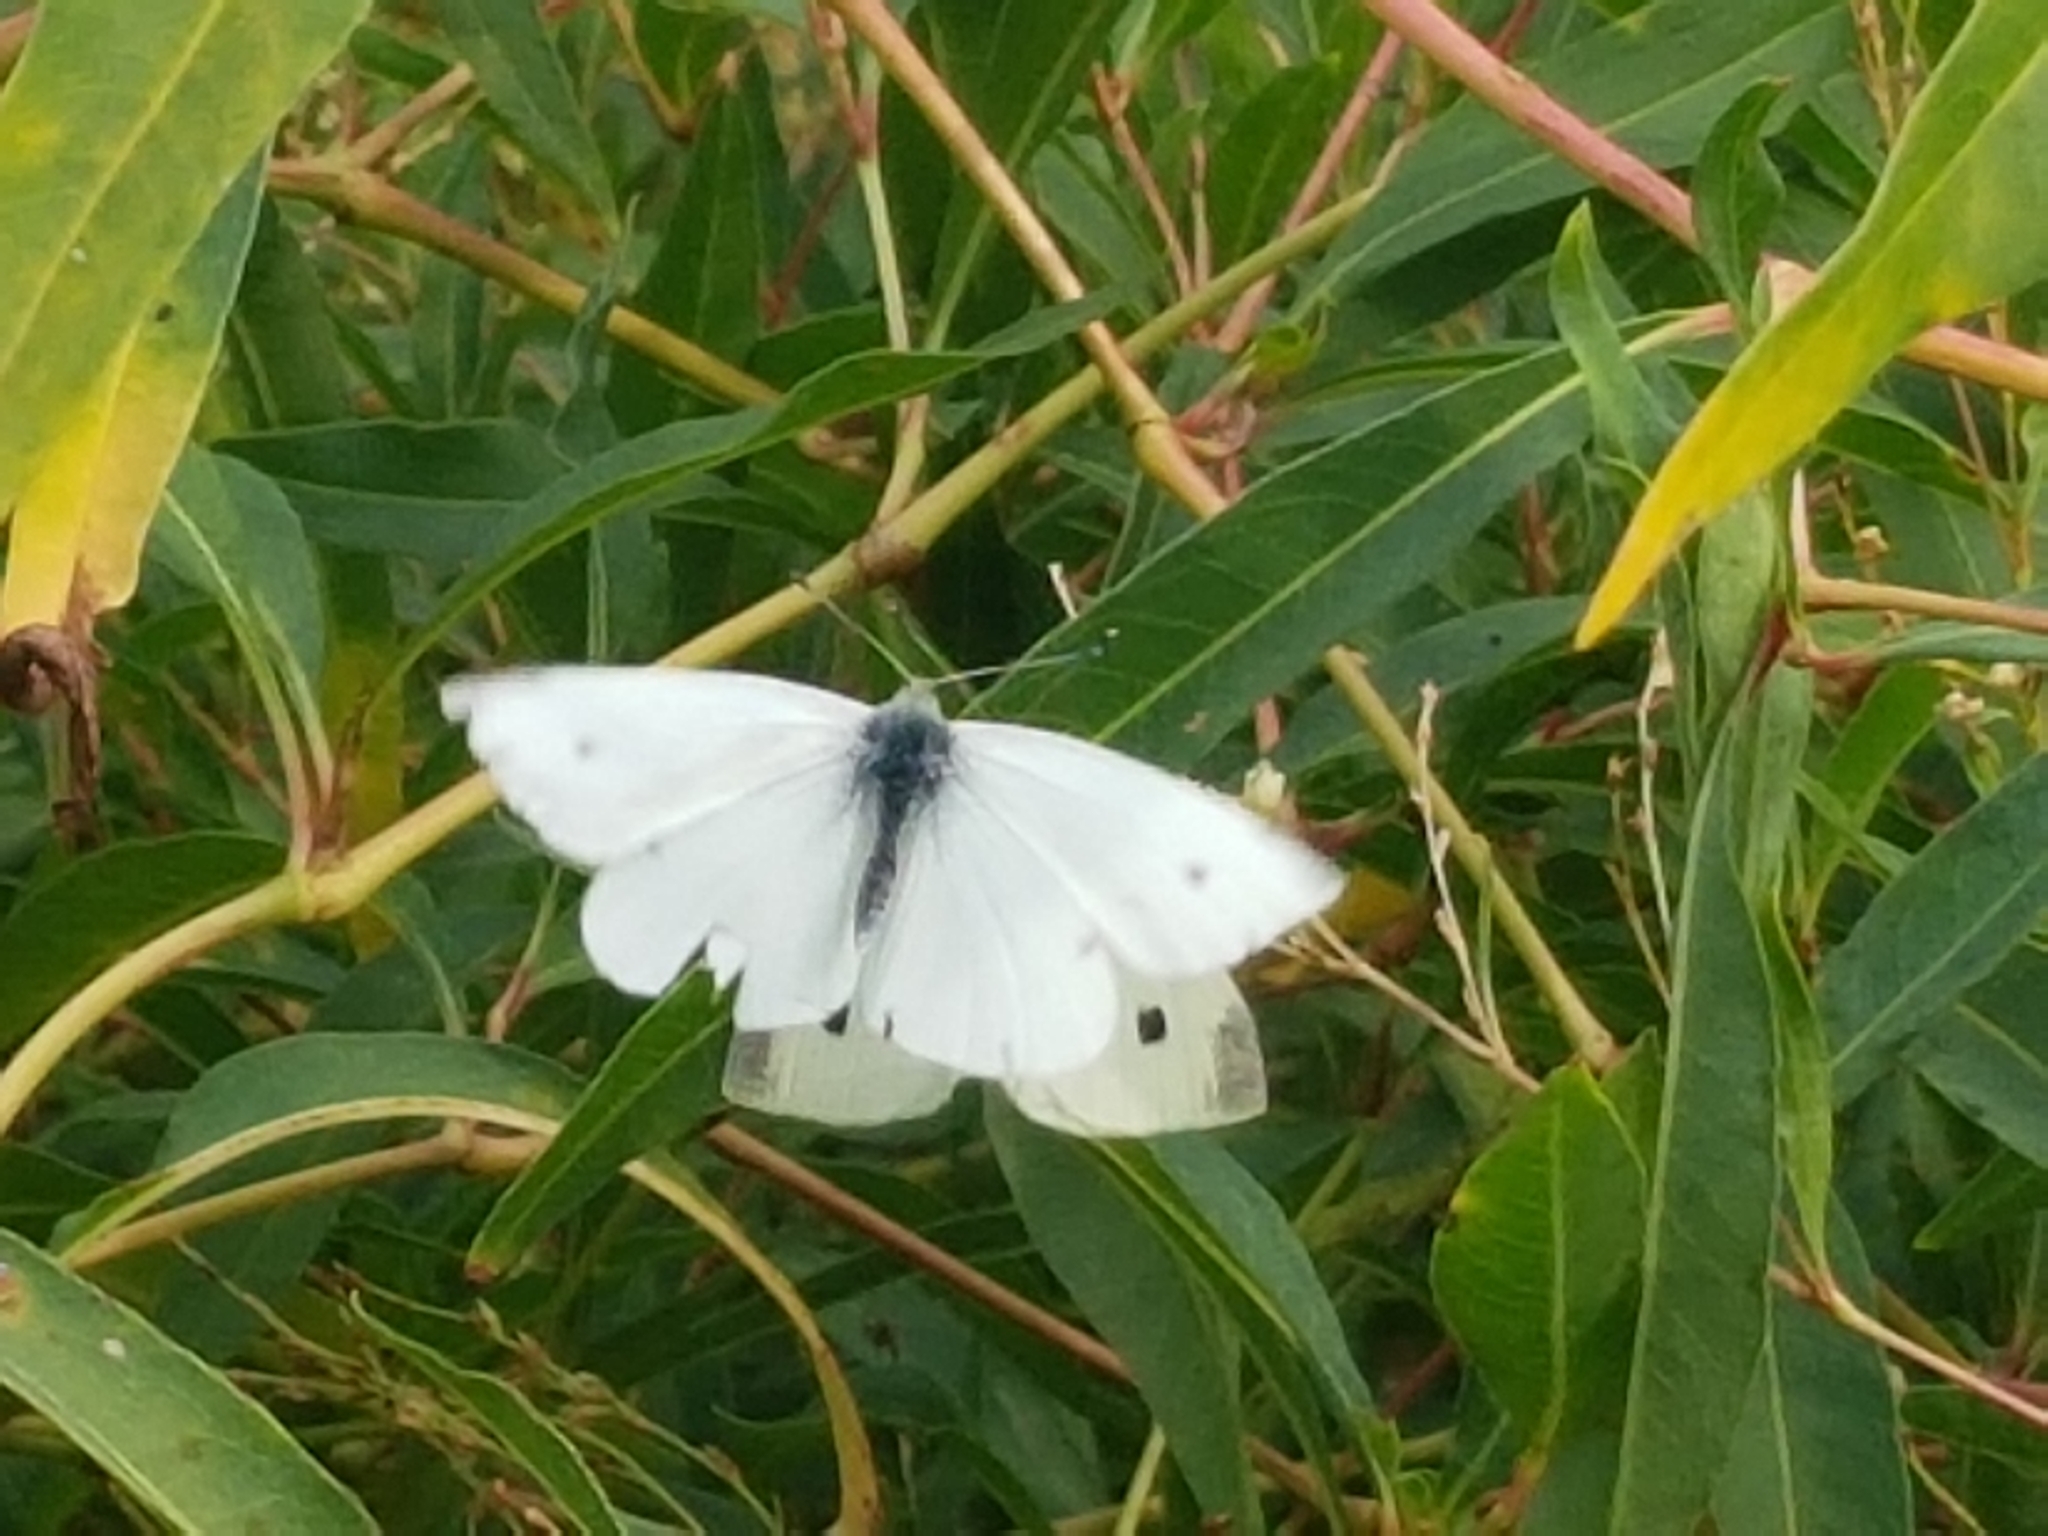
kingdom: Animalia
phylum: Arthropoda
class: Insecta
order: Lepidoptera
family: Pieridae
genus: Pieris
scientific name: Pieris rapae
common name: Small white
